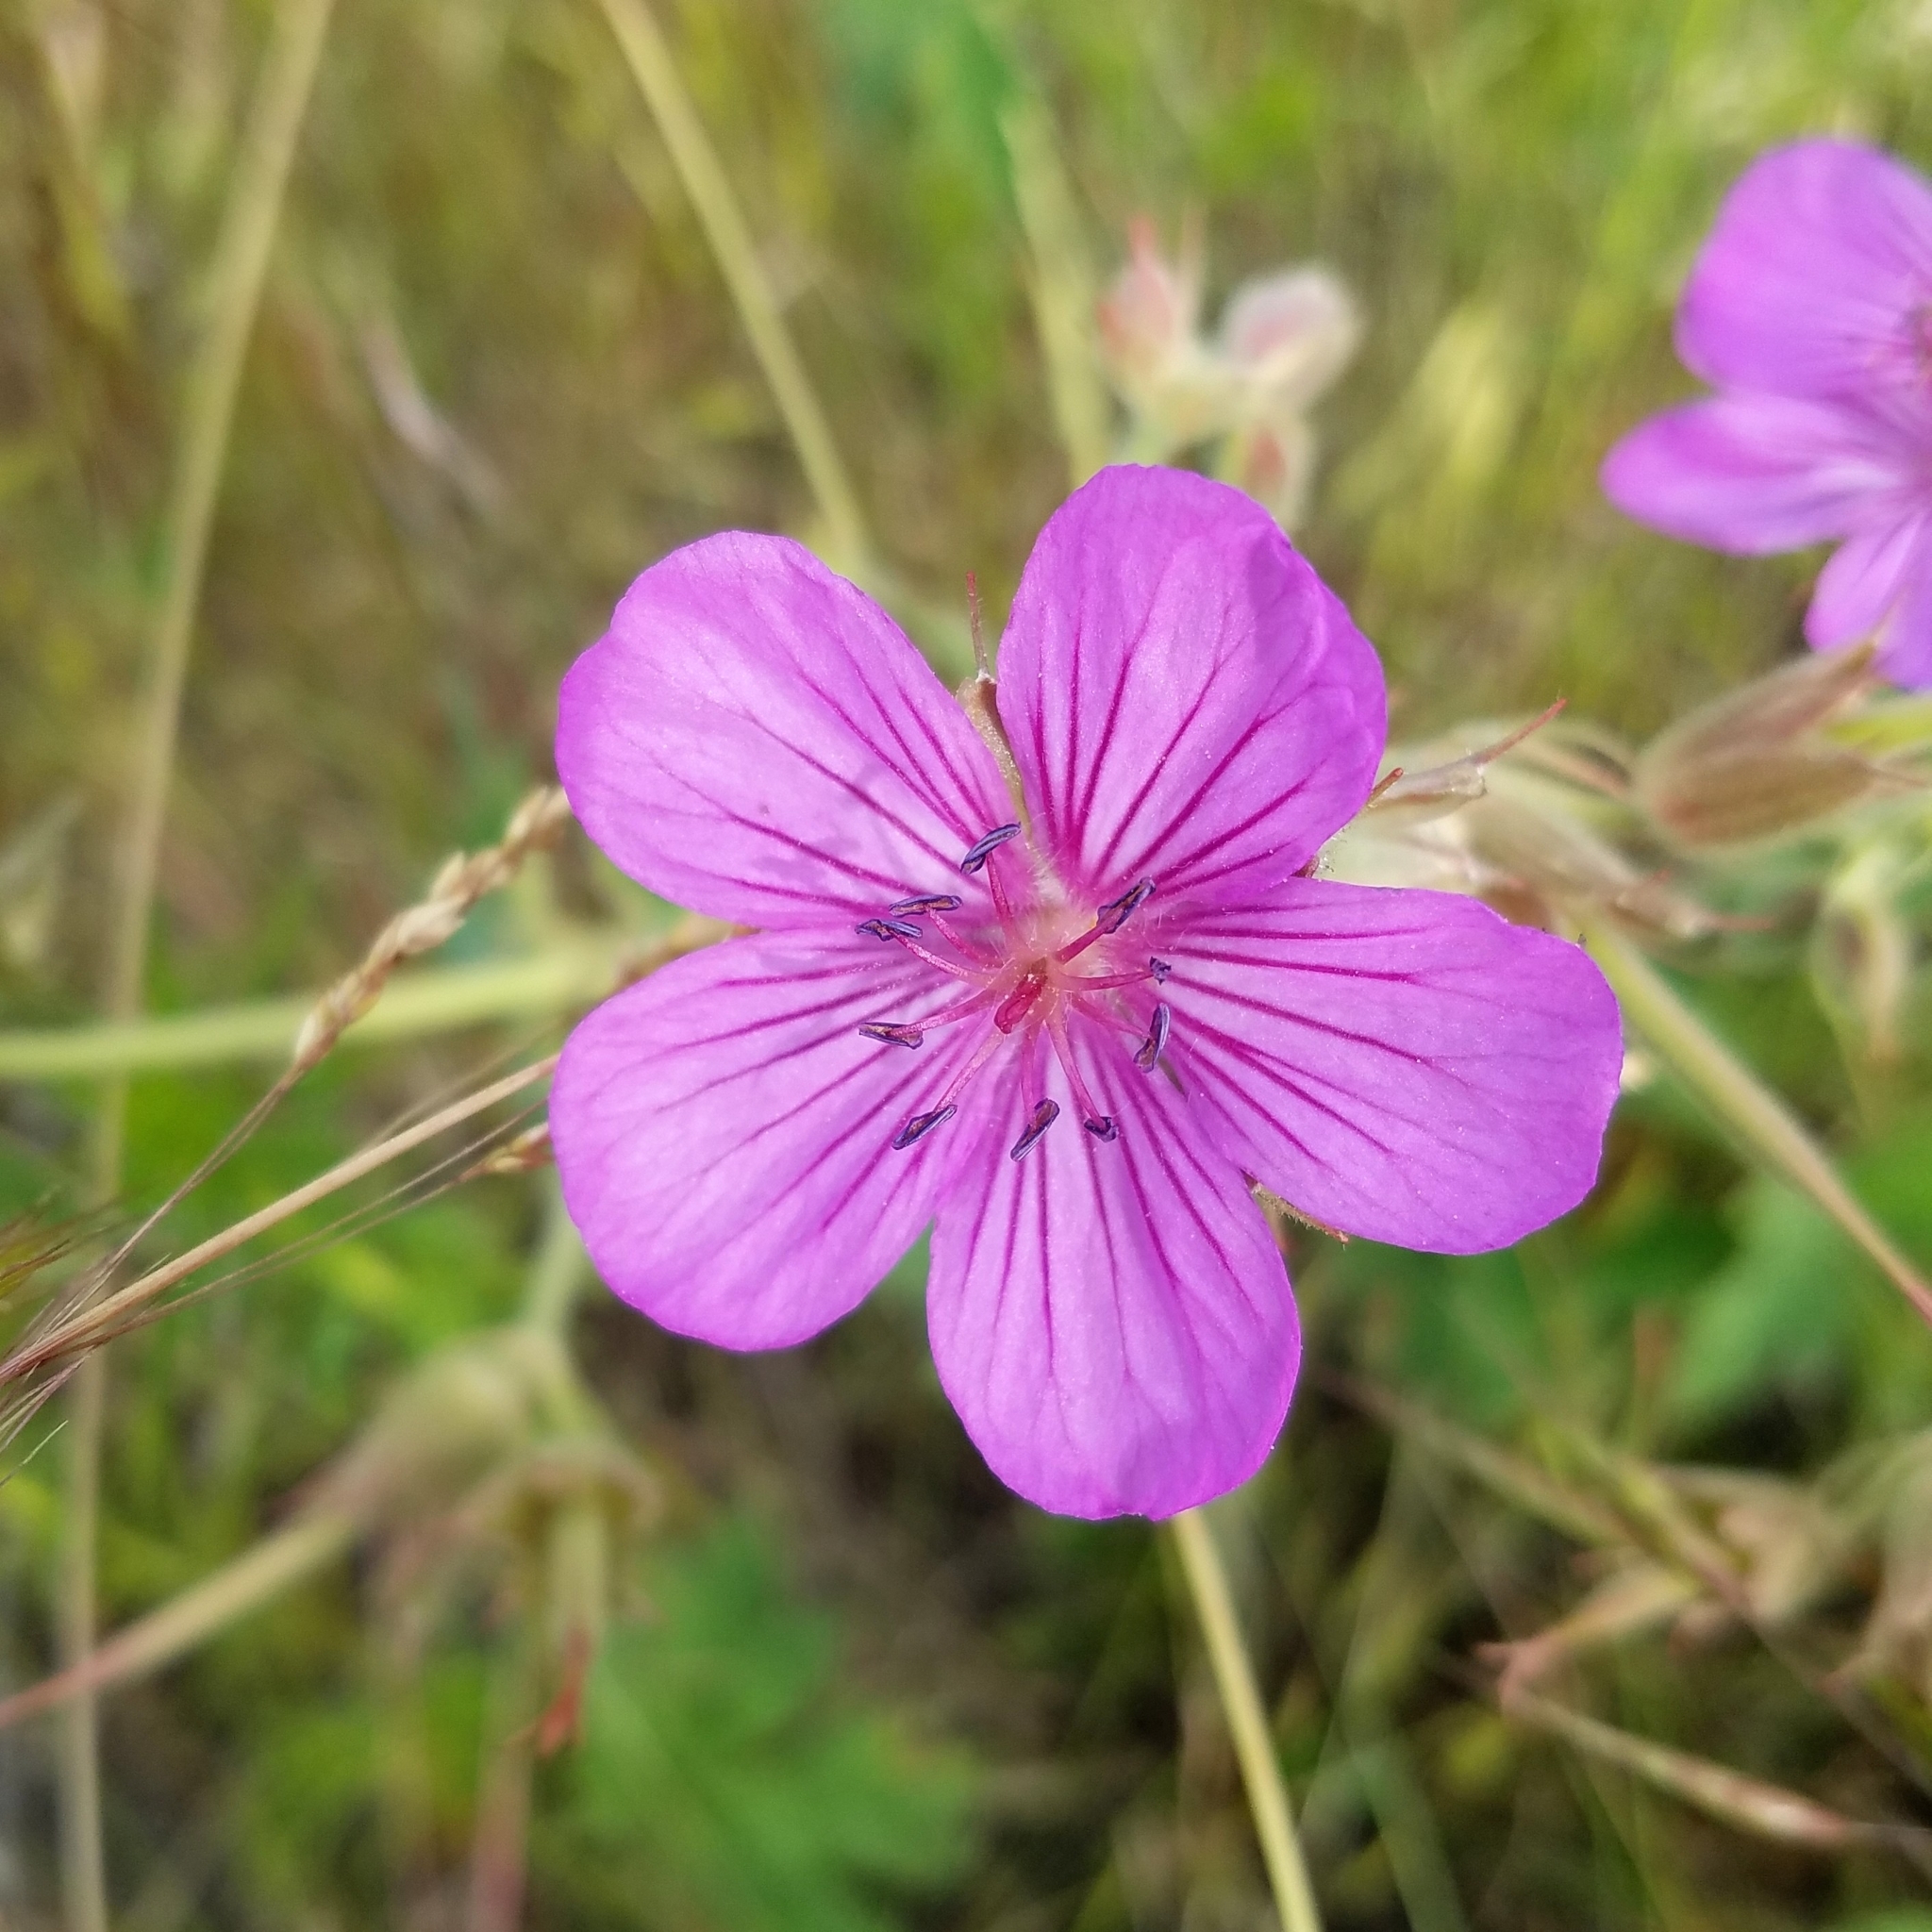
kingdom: Plantae
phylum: Tracheophyta
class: Magnoliopsida
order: Geraniales
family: Geraniaceae
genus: Geranium
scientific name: Geranium viscosissimum
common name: Purple geranium
